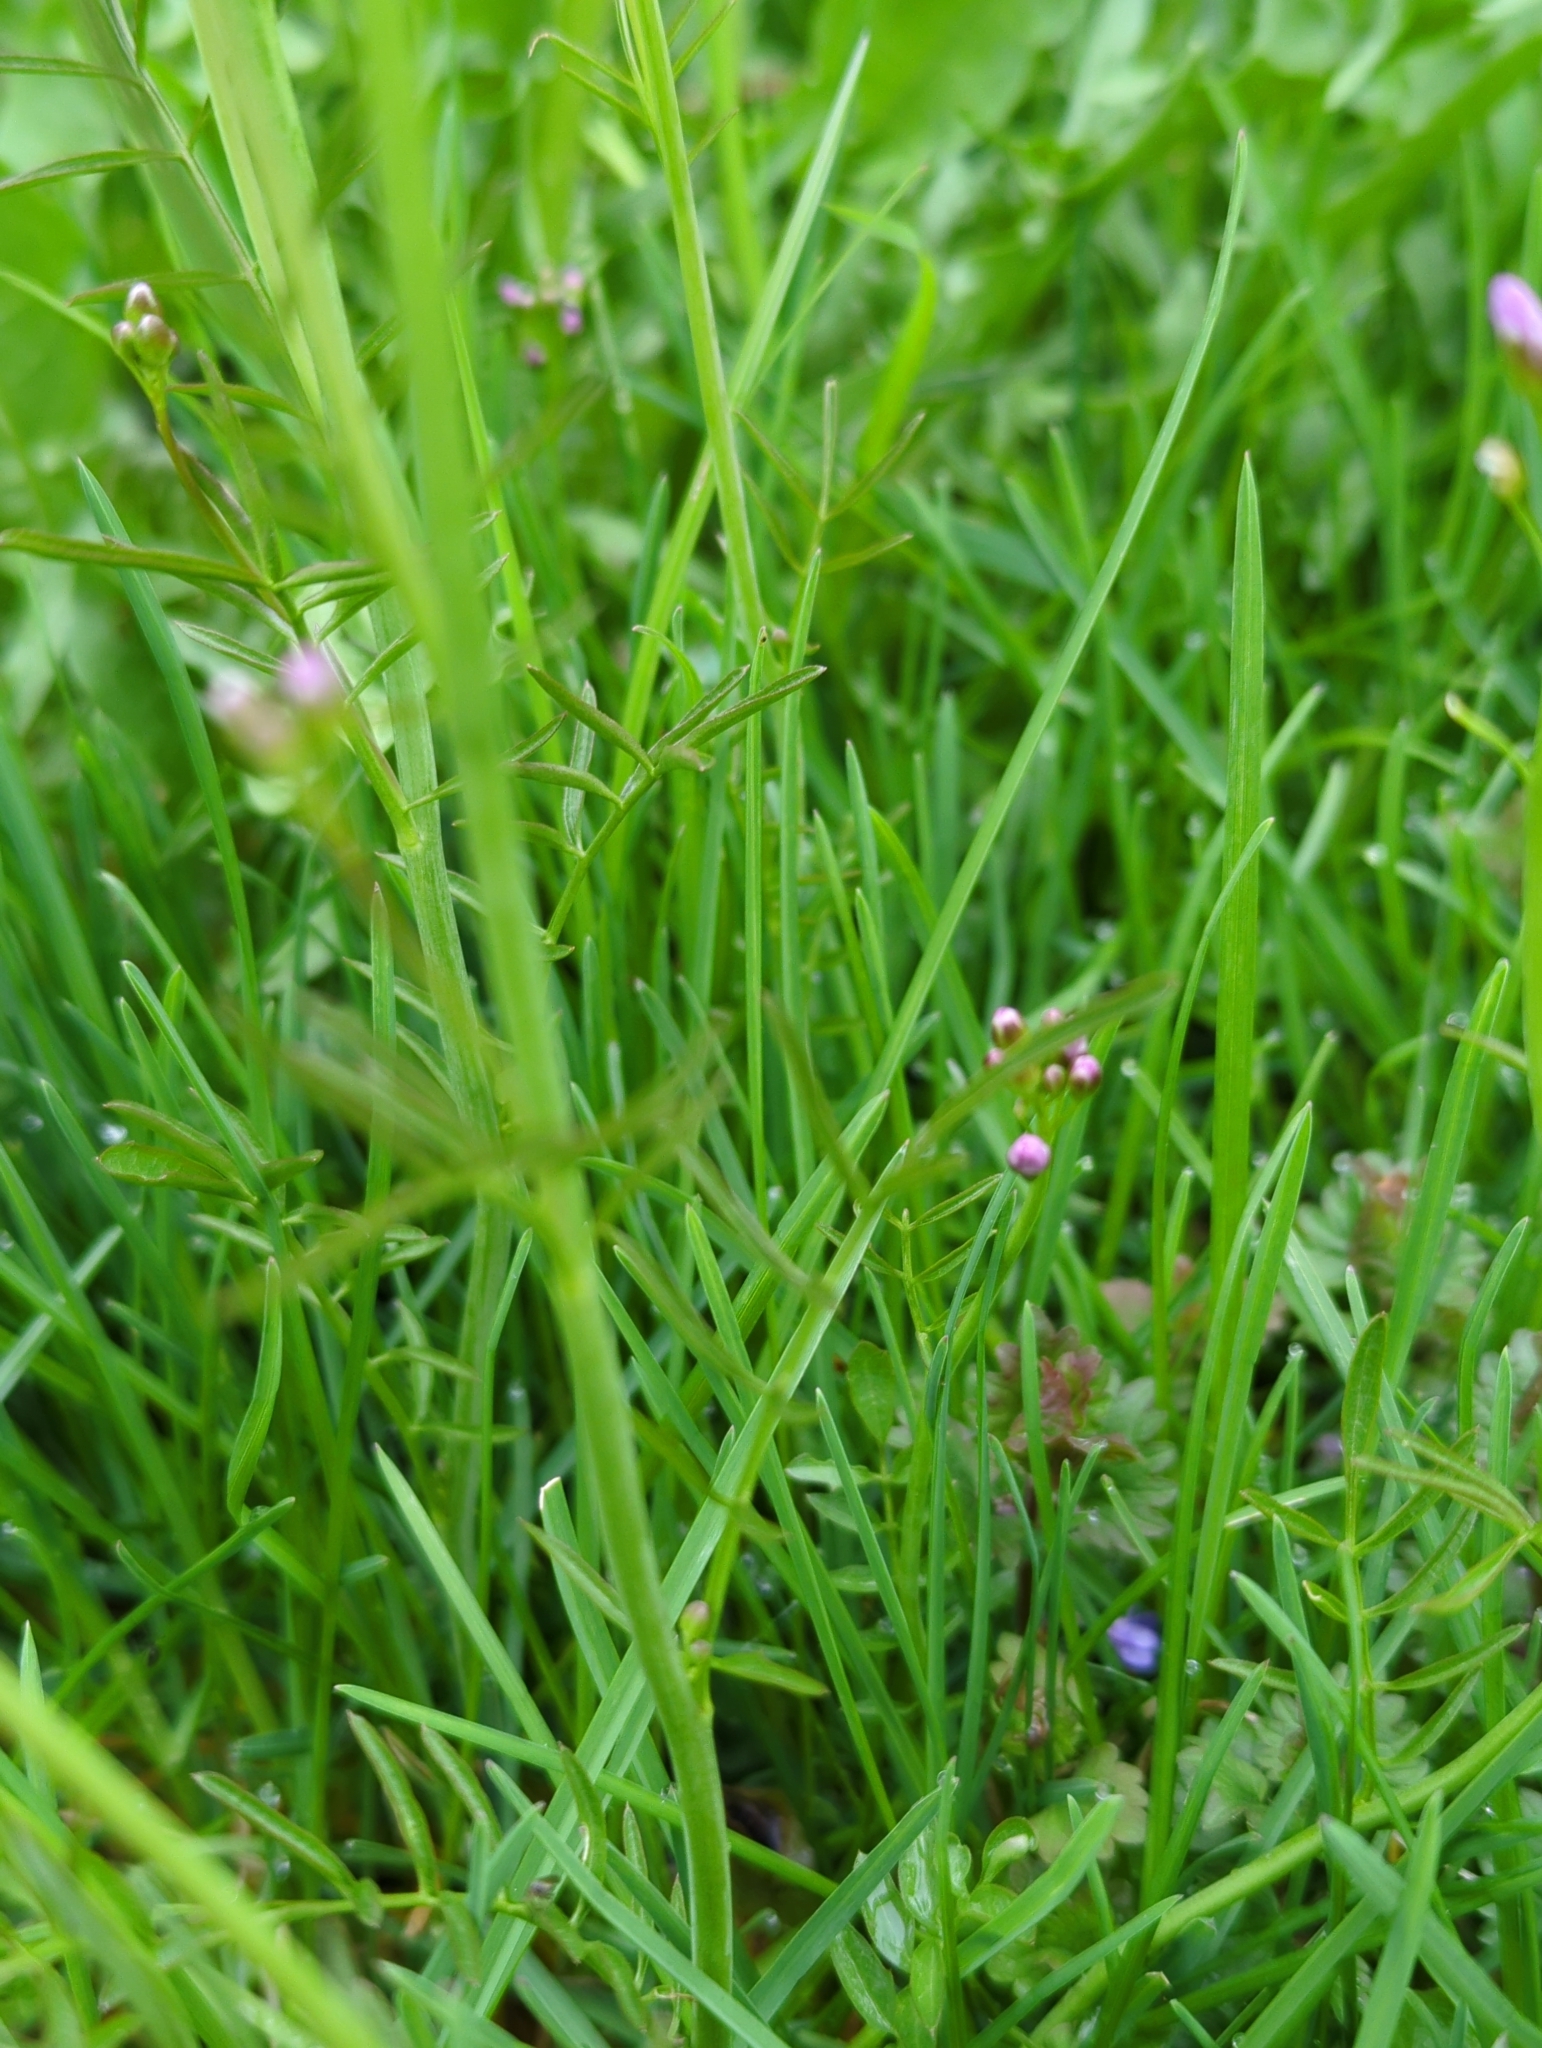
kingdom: Plantae
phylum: Tracheophyta
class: Magnoliopsida
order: Brassicales
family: Brassicaceae
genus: Cardamine
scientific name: Cardamine pratensis
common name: Cuckoo flower
